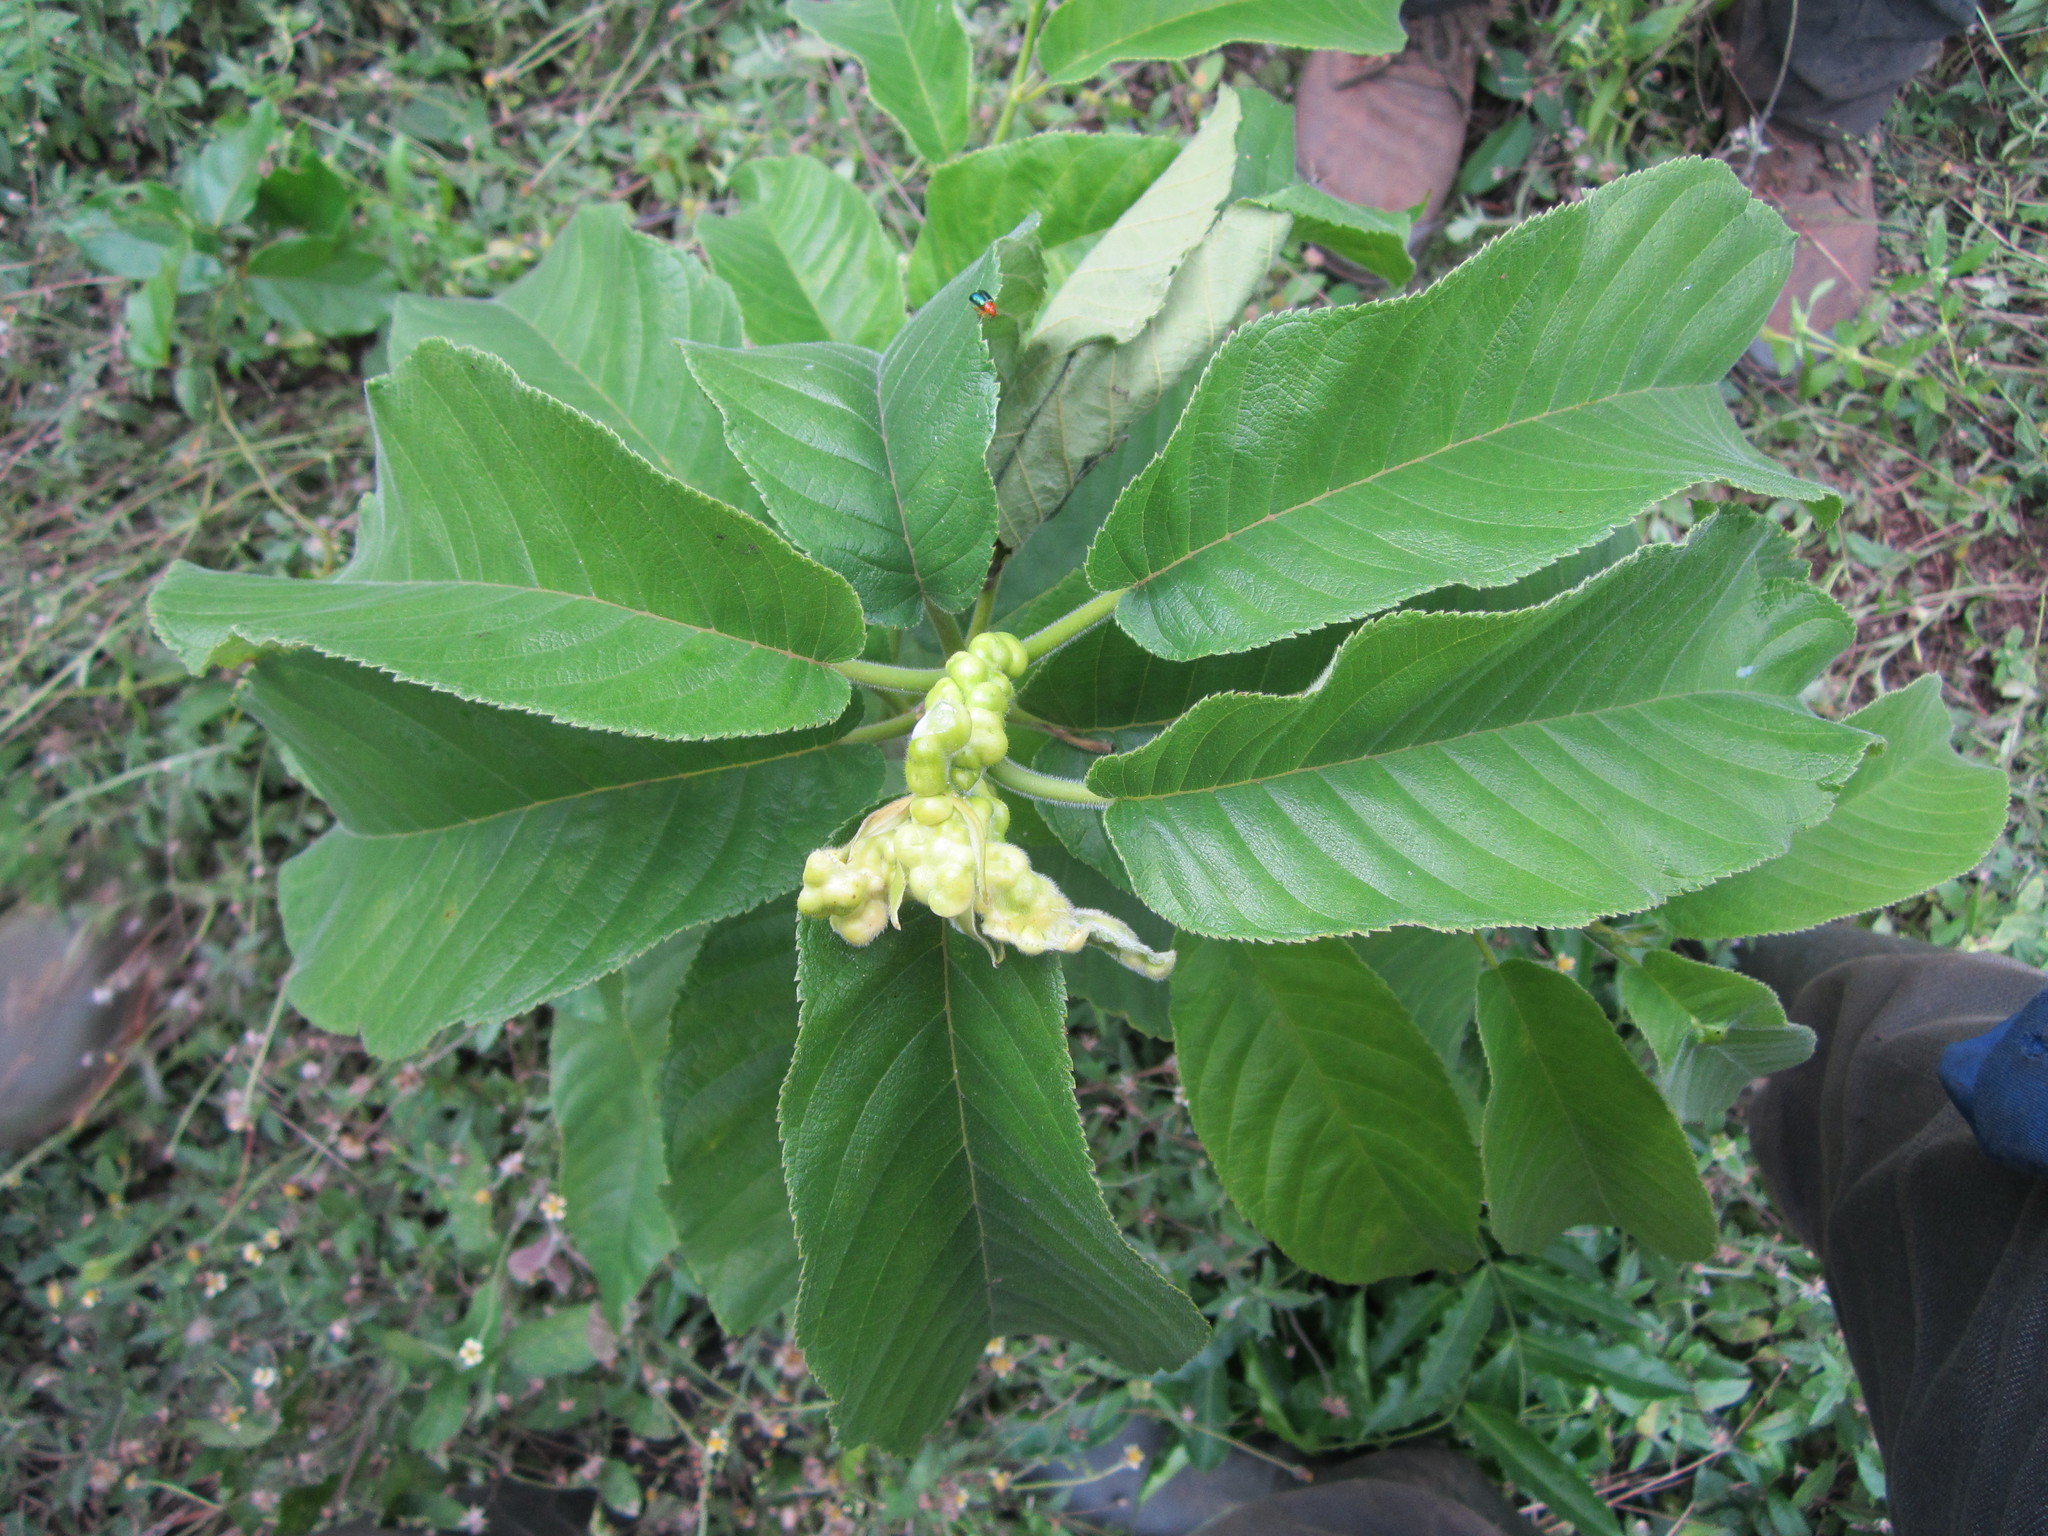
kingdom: Plantae
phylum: Tracheophyta
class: Magnoliopsida
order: Rosales
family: Moraceae
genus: Milicia
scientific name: Milicia excelsa
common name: African teak
